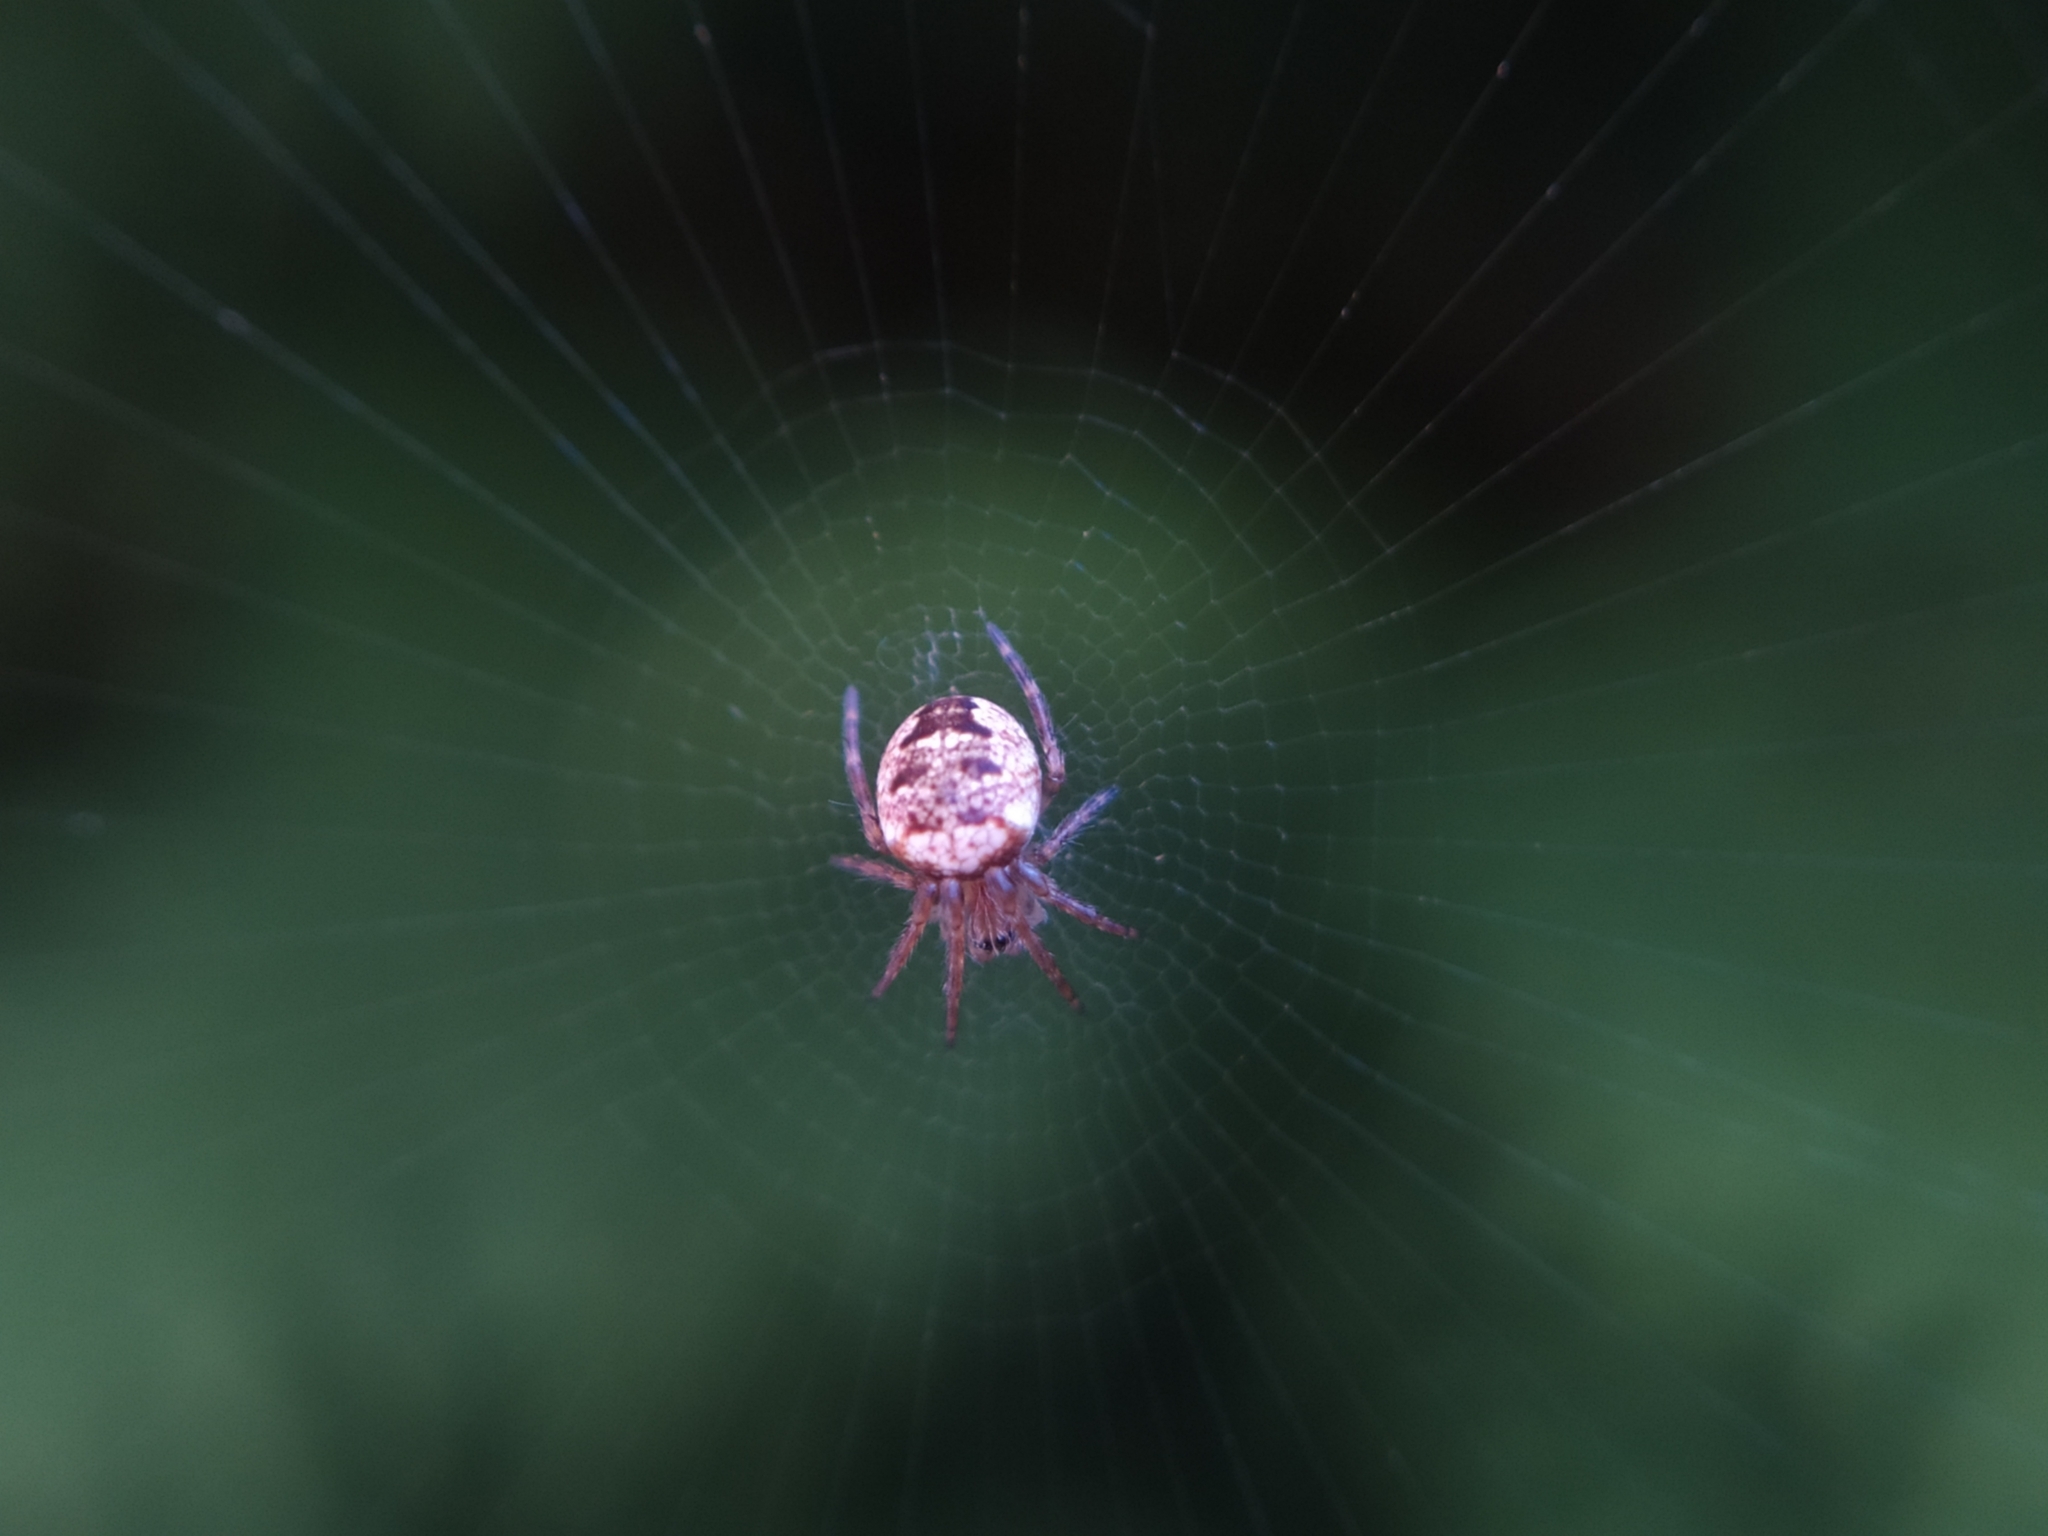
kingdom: Animalia
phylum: Arthropoda
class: Arachnida
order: Araneae
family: Araneidae
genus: Zilla
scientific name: Zilla diodia
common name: Zilla diodia
